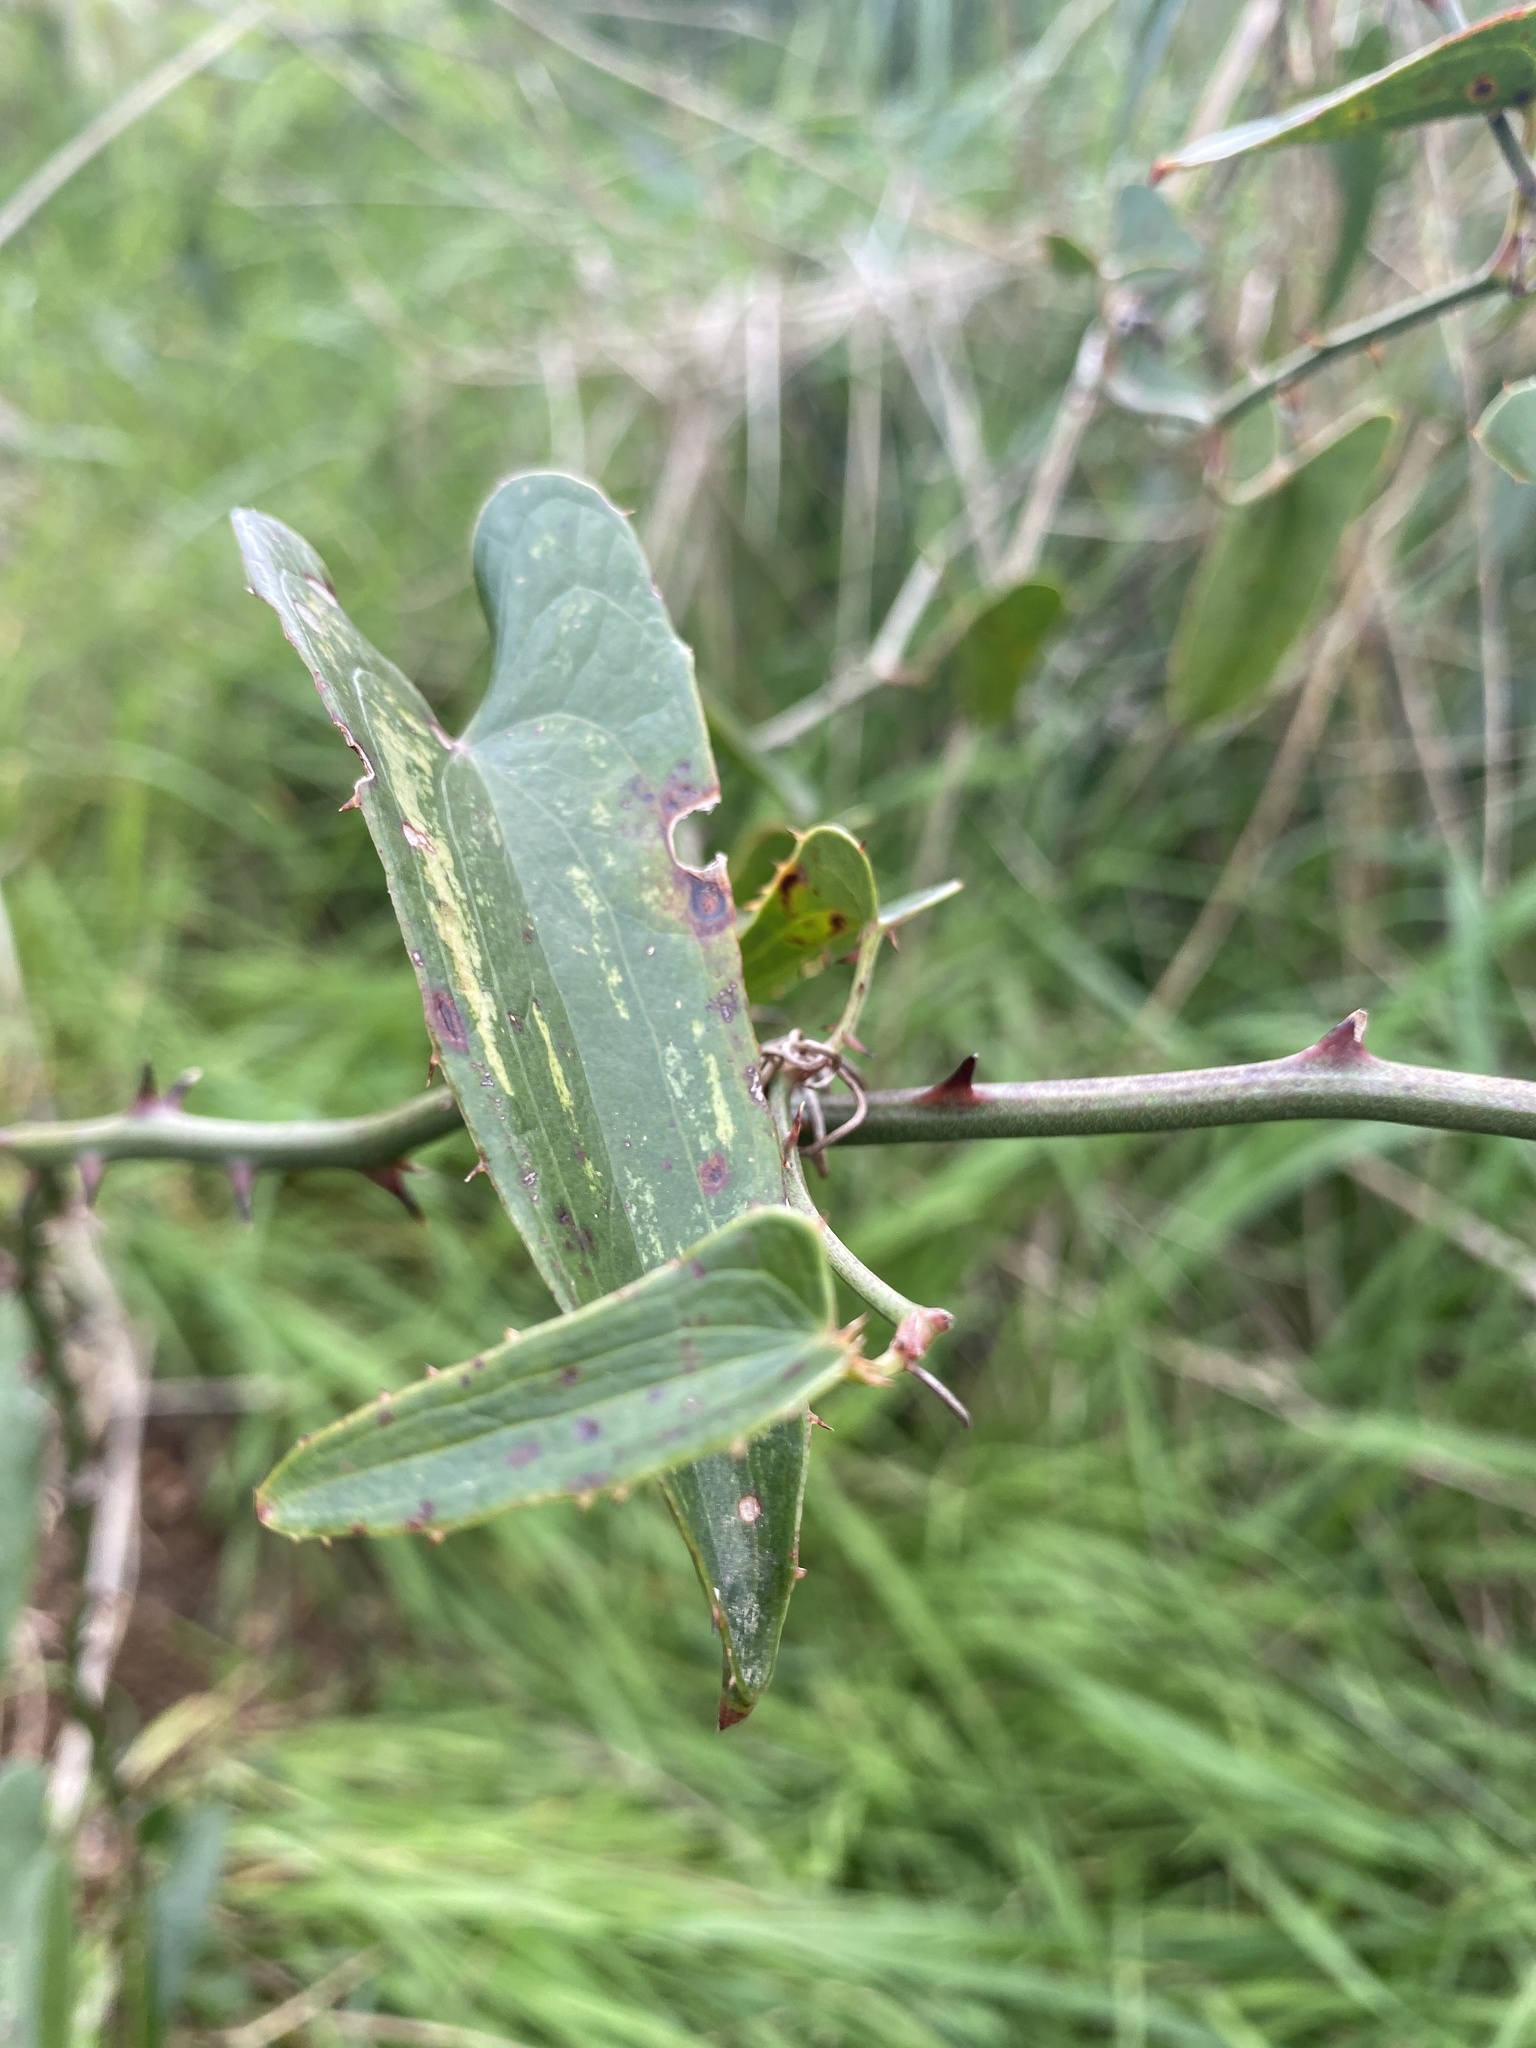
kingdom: Plantae
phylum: Tracheophyta
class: Liliopsida
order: Liliales
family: Smilacaceae
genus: Smilax
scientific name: Smilax aspera
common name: Common smilax
